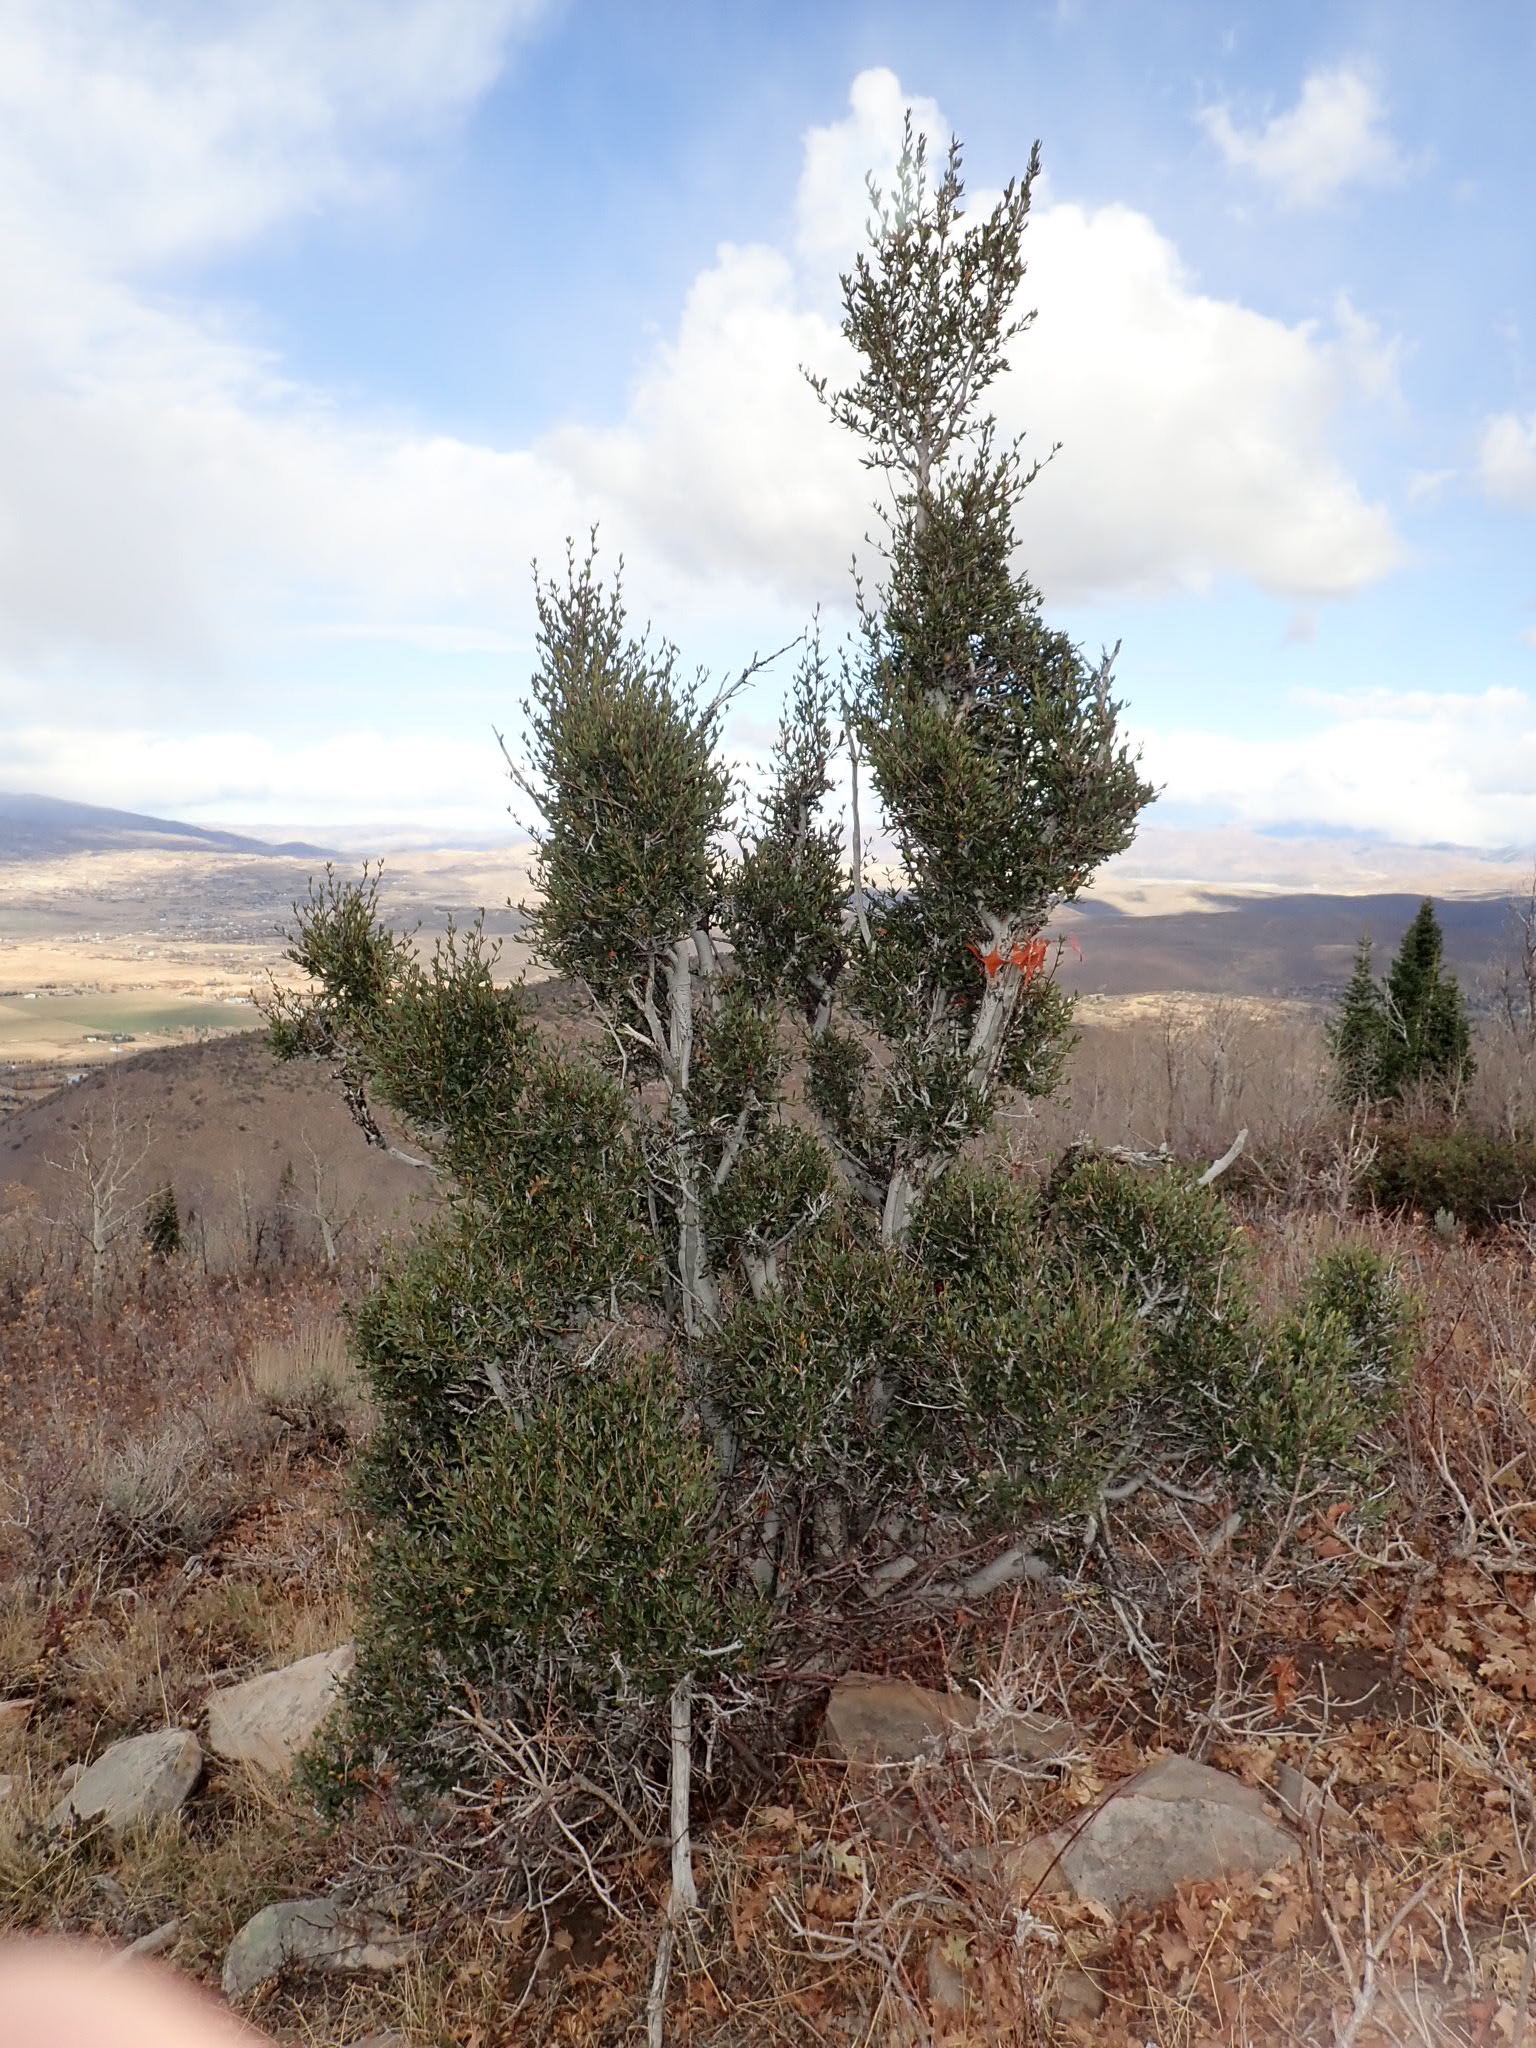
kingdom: Plantae
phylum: Tracheophyta
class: Magnoliopsida
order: Rosales
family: Rosaceae
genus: Cercocarpus
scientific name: Cercocarpus ledifolius
